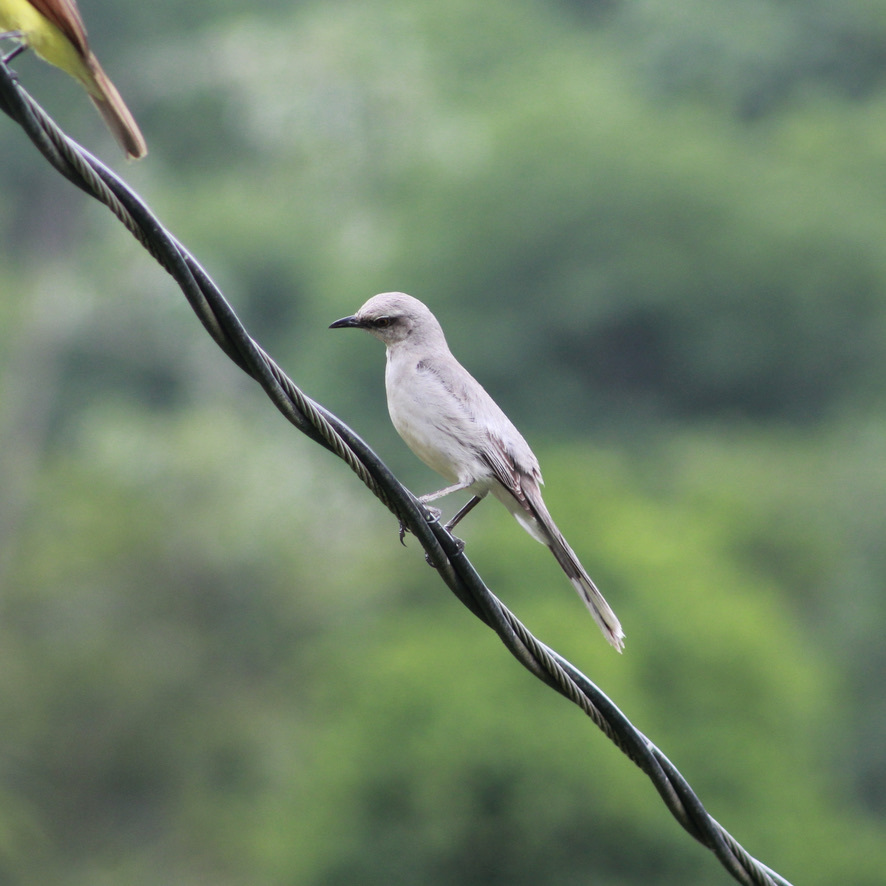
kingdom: Animalia
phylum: Chordata
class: Aves
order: Passeriformes
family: Mimidae
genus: Mimus
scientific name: Mimus gilvus
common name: Tropical mockingbird
